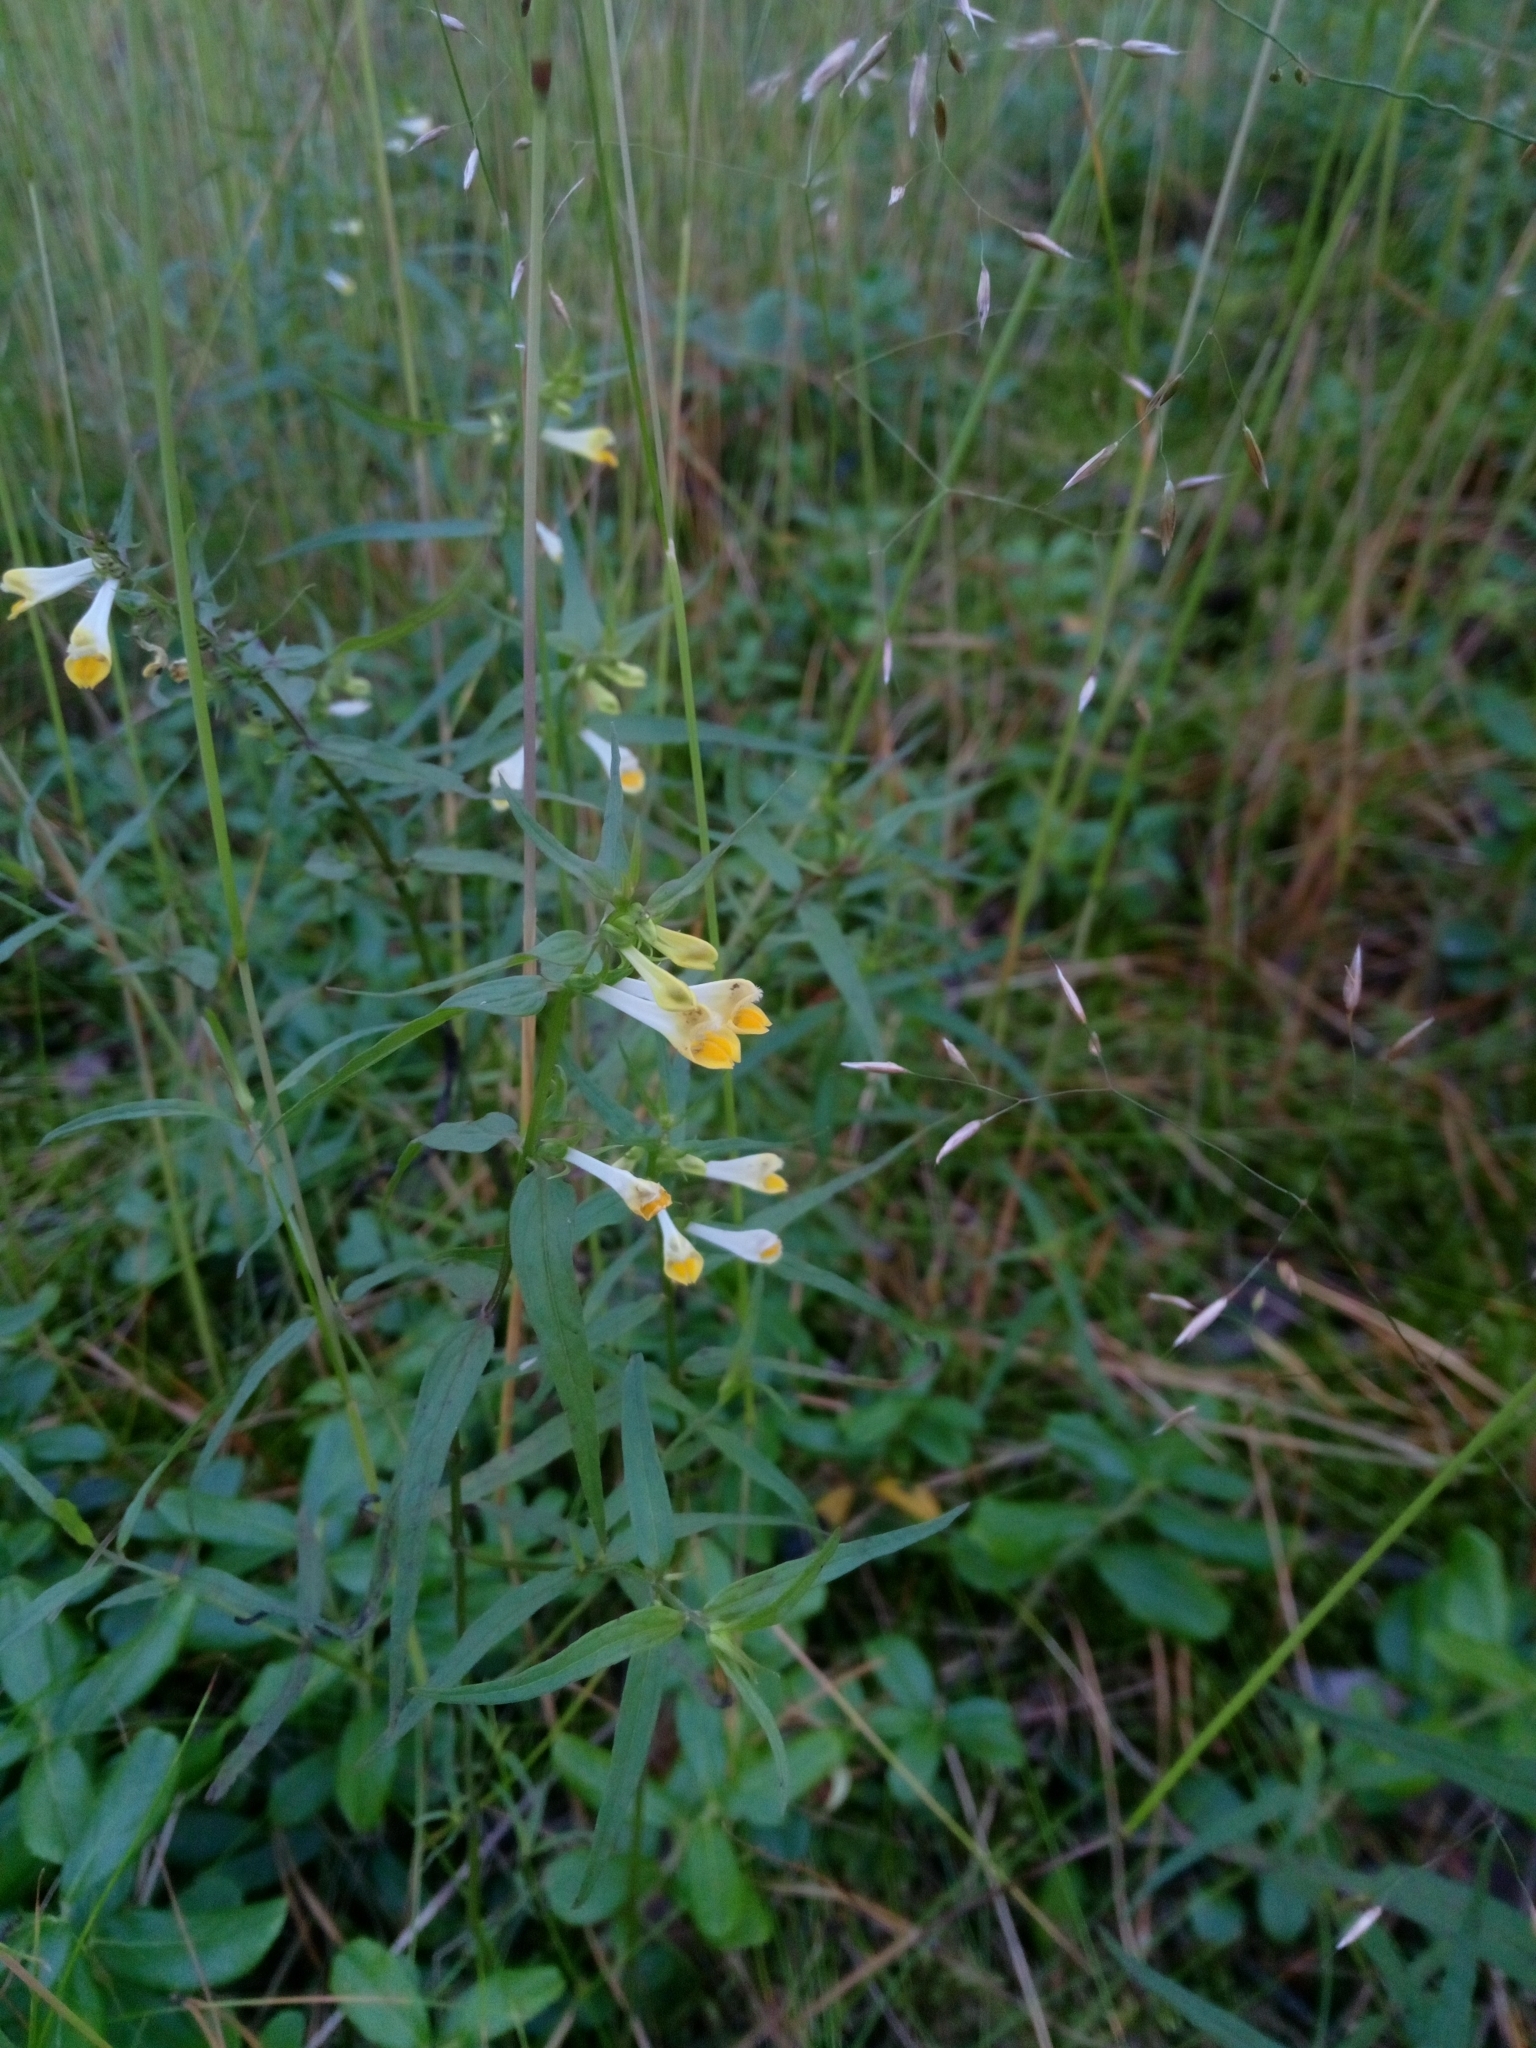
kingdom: Plantae
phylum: Tracheophyta
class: Magnoliopsida
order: Lamiales
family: Orobanchaceae
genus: Melampyrum
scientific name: Melampyrum pratense
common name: Common cow-wheat
